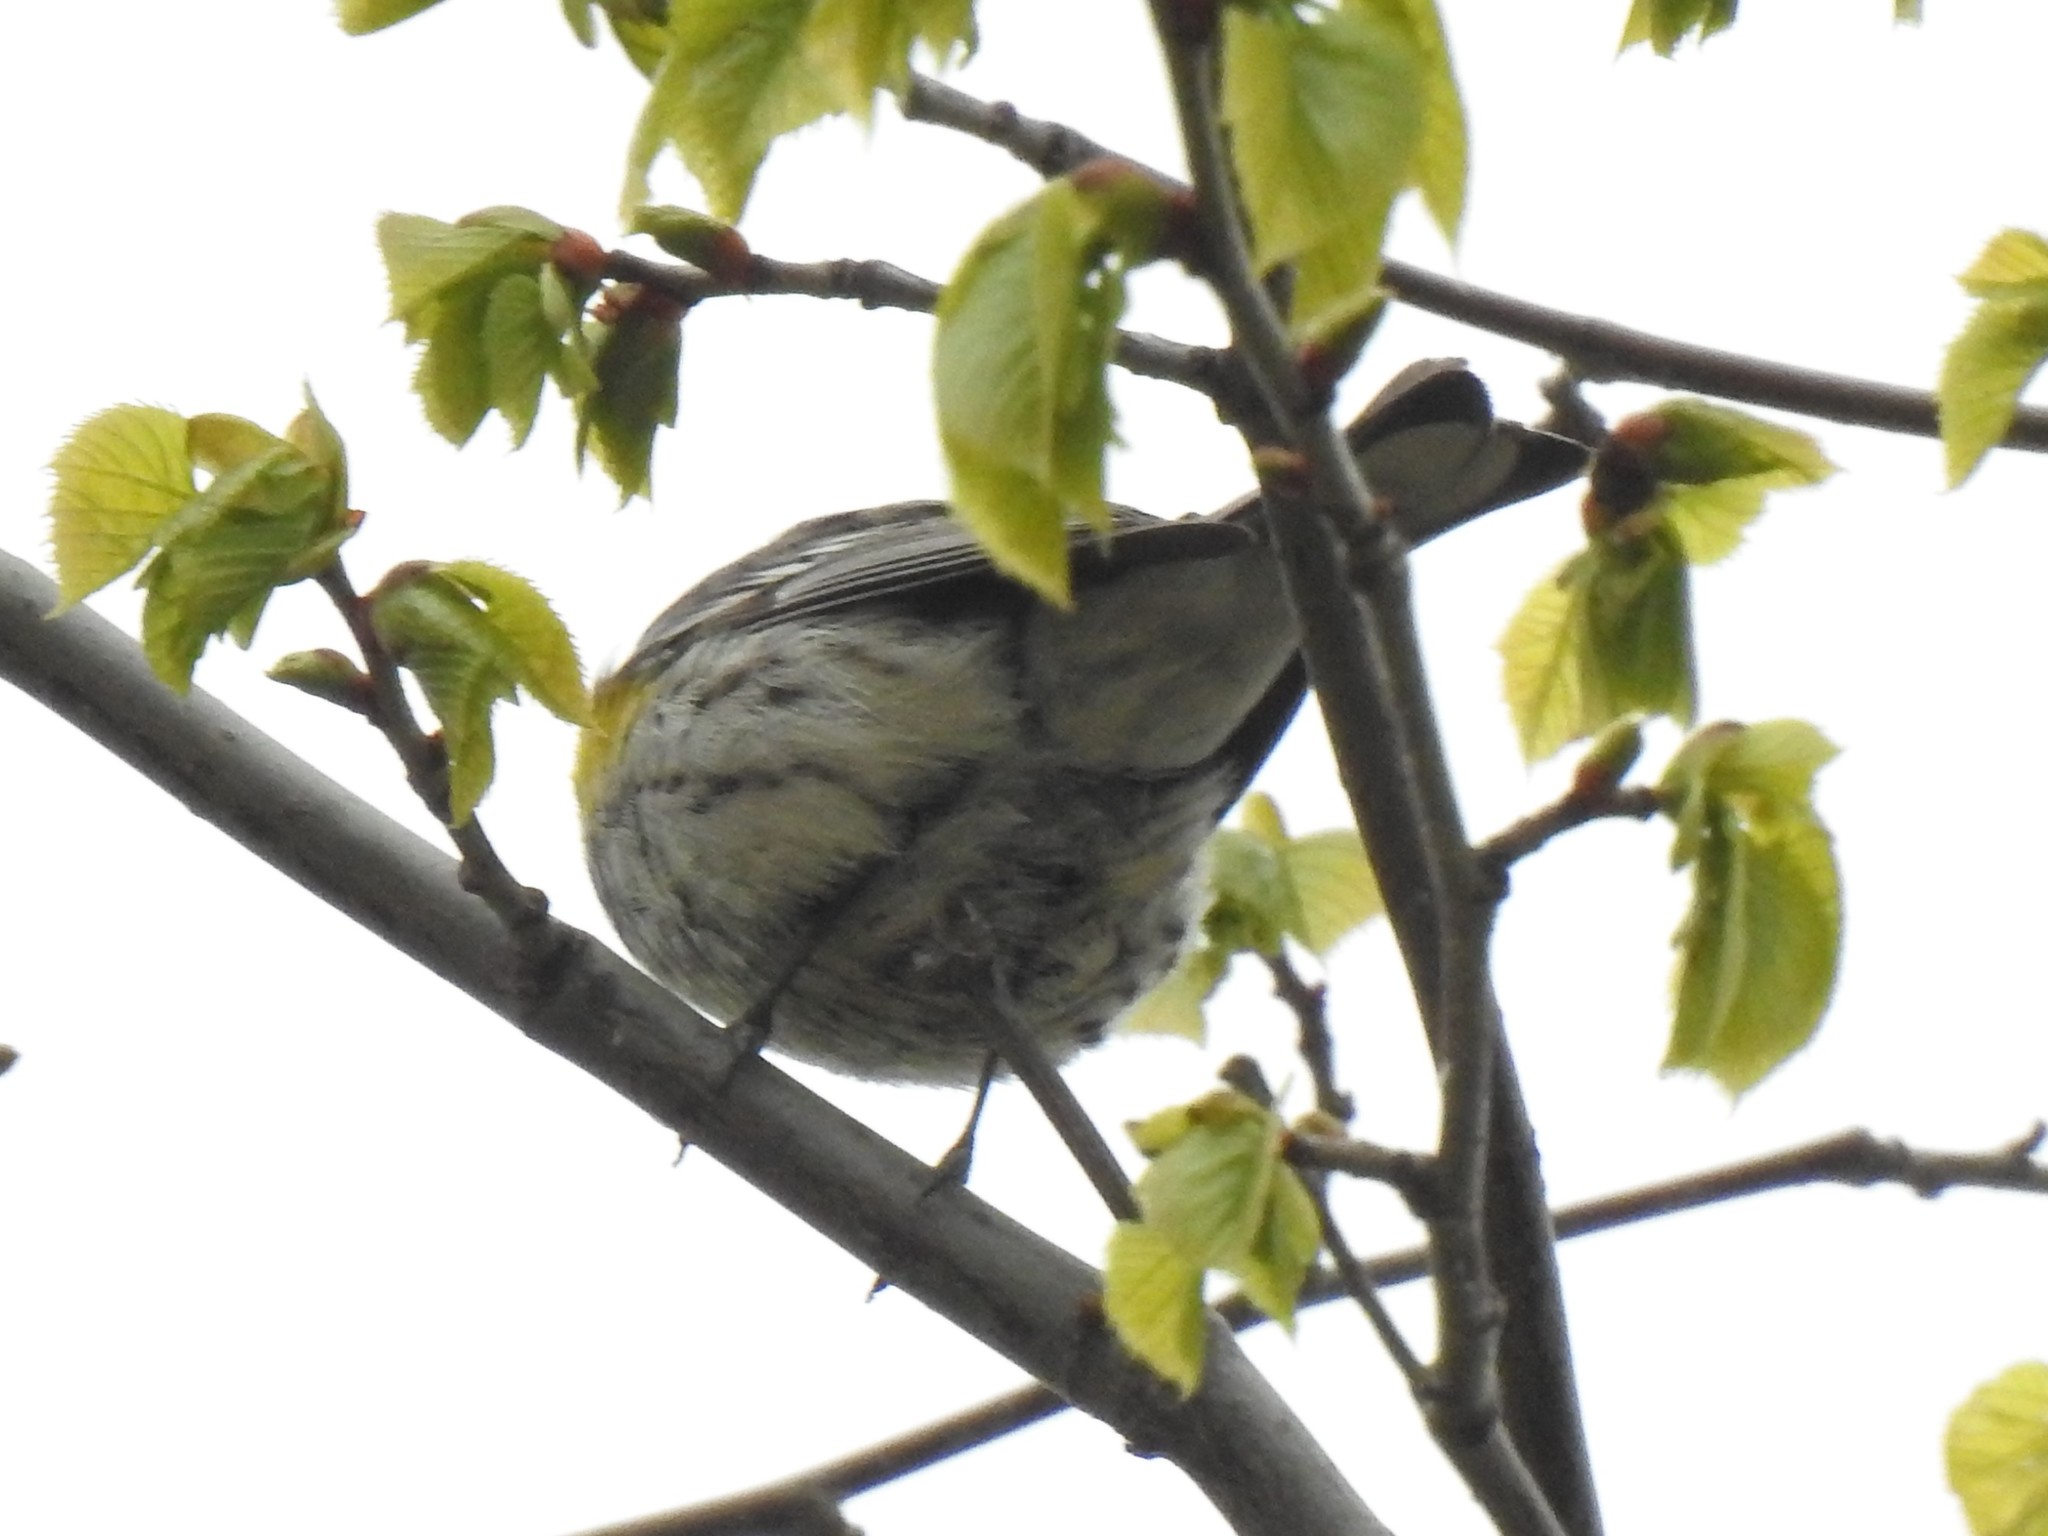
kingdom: Animalia
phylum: Chordata
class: Aves
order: Passeriformes
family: Parulidae
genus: Setophaga
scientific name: Setophaga coronata
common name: Myrtle warbler
